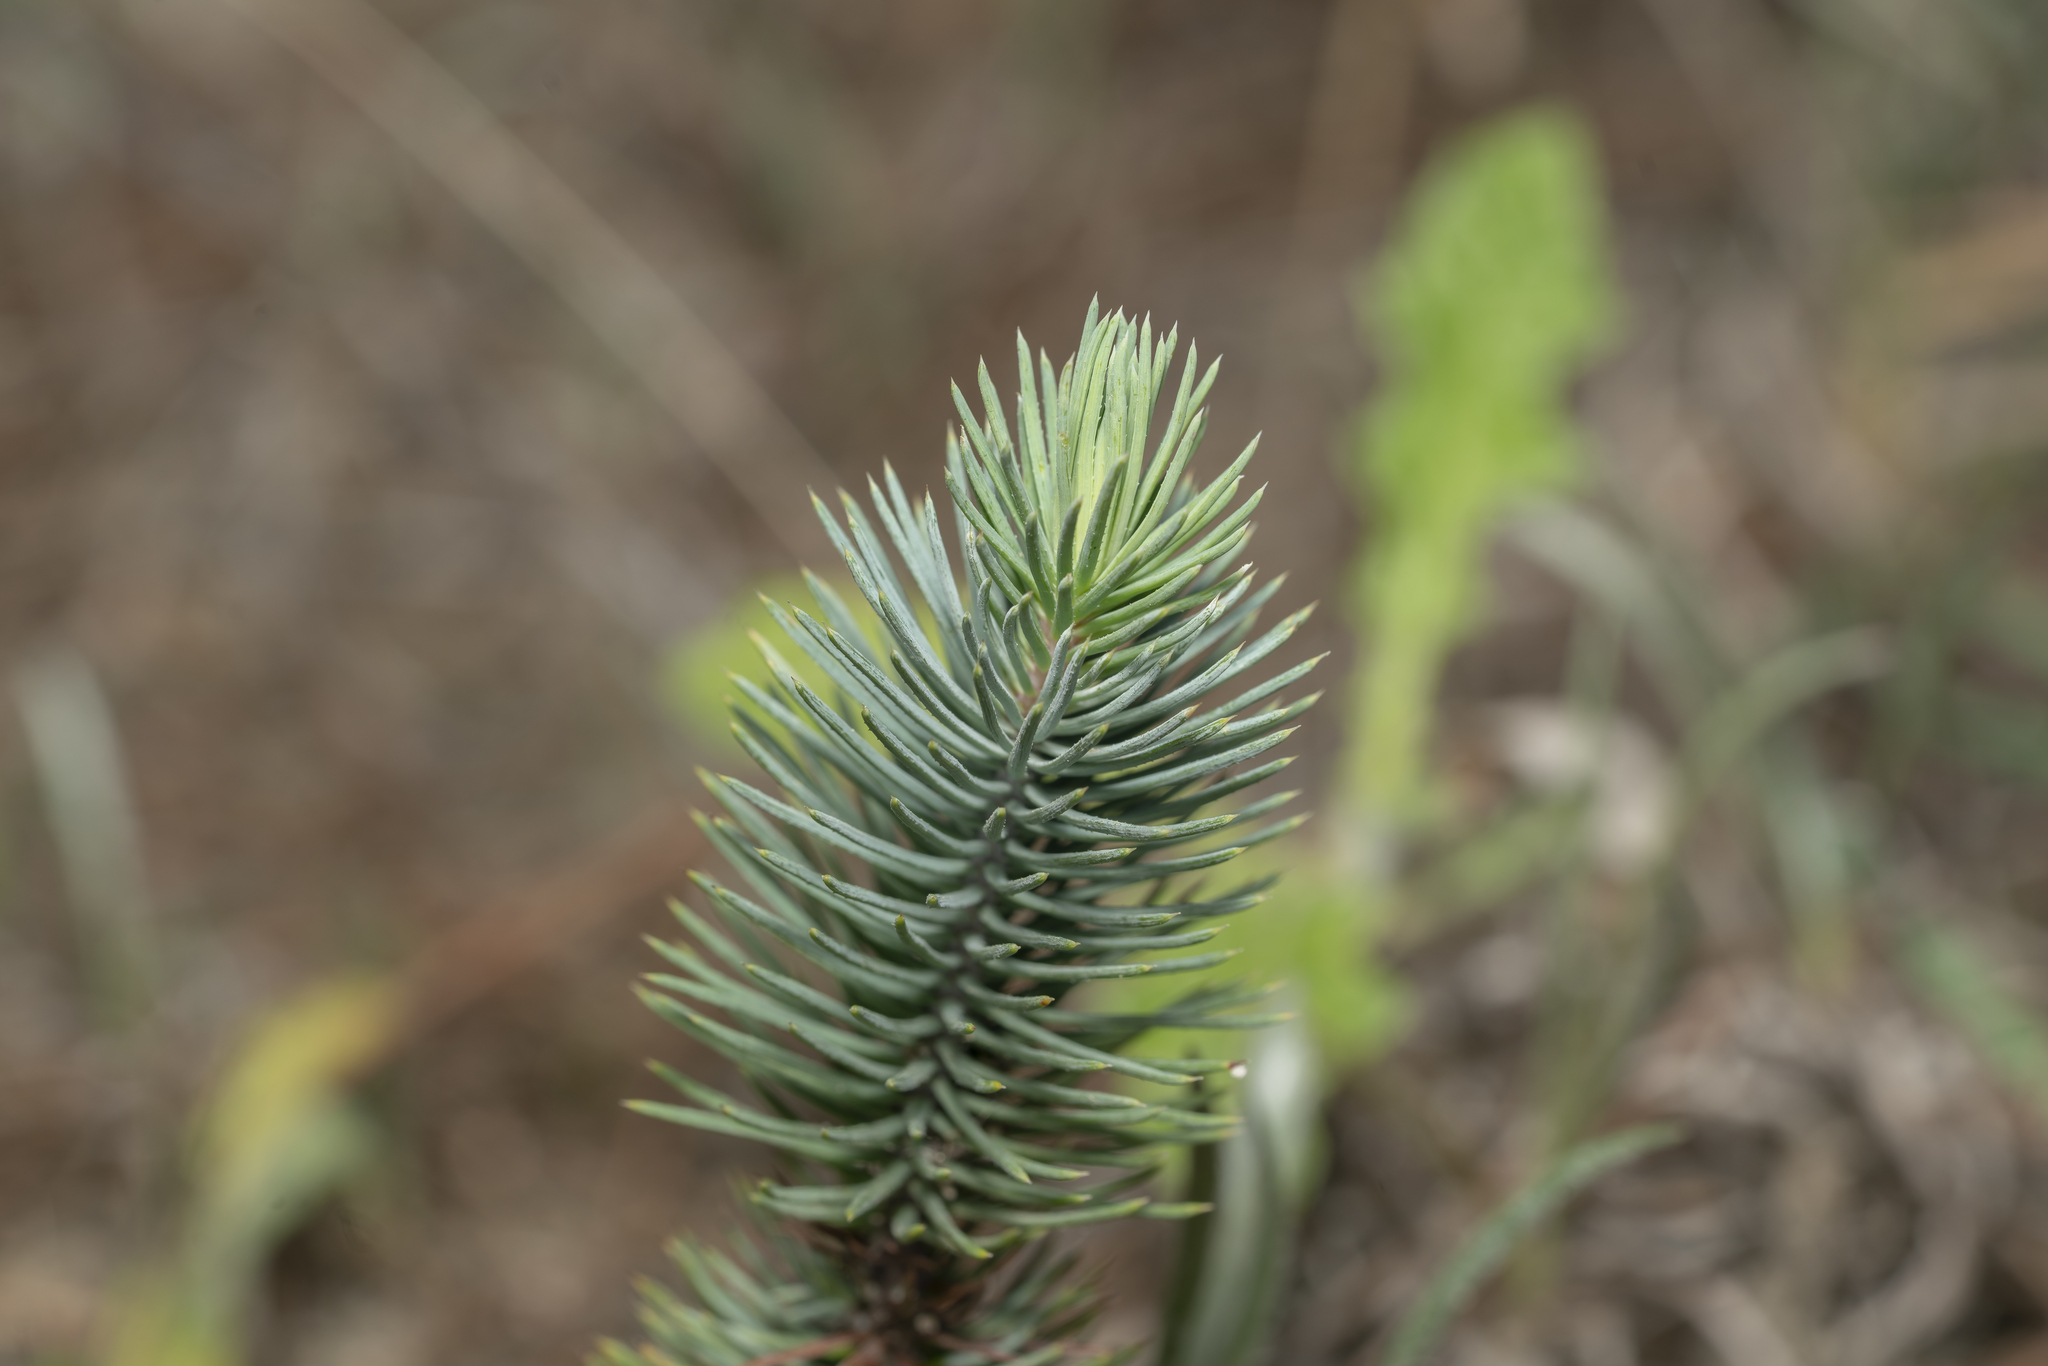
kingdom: Plantae
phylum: Tracheophyta
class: Pinopsida
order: Pinales
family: Pinaceae
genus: Pinus
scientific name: Pinus pinea
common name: Italian stone pine
